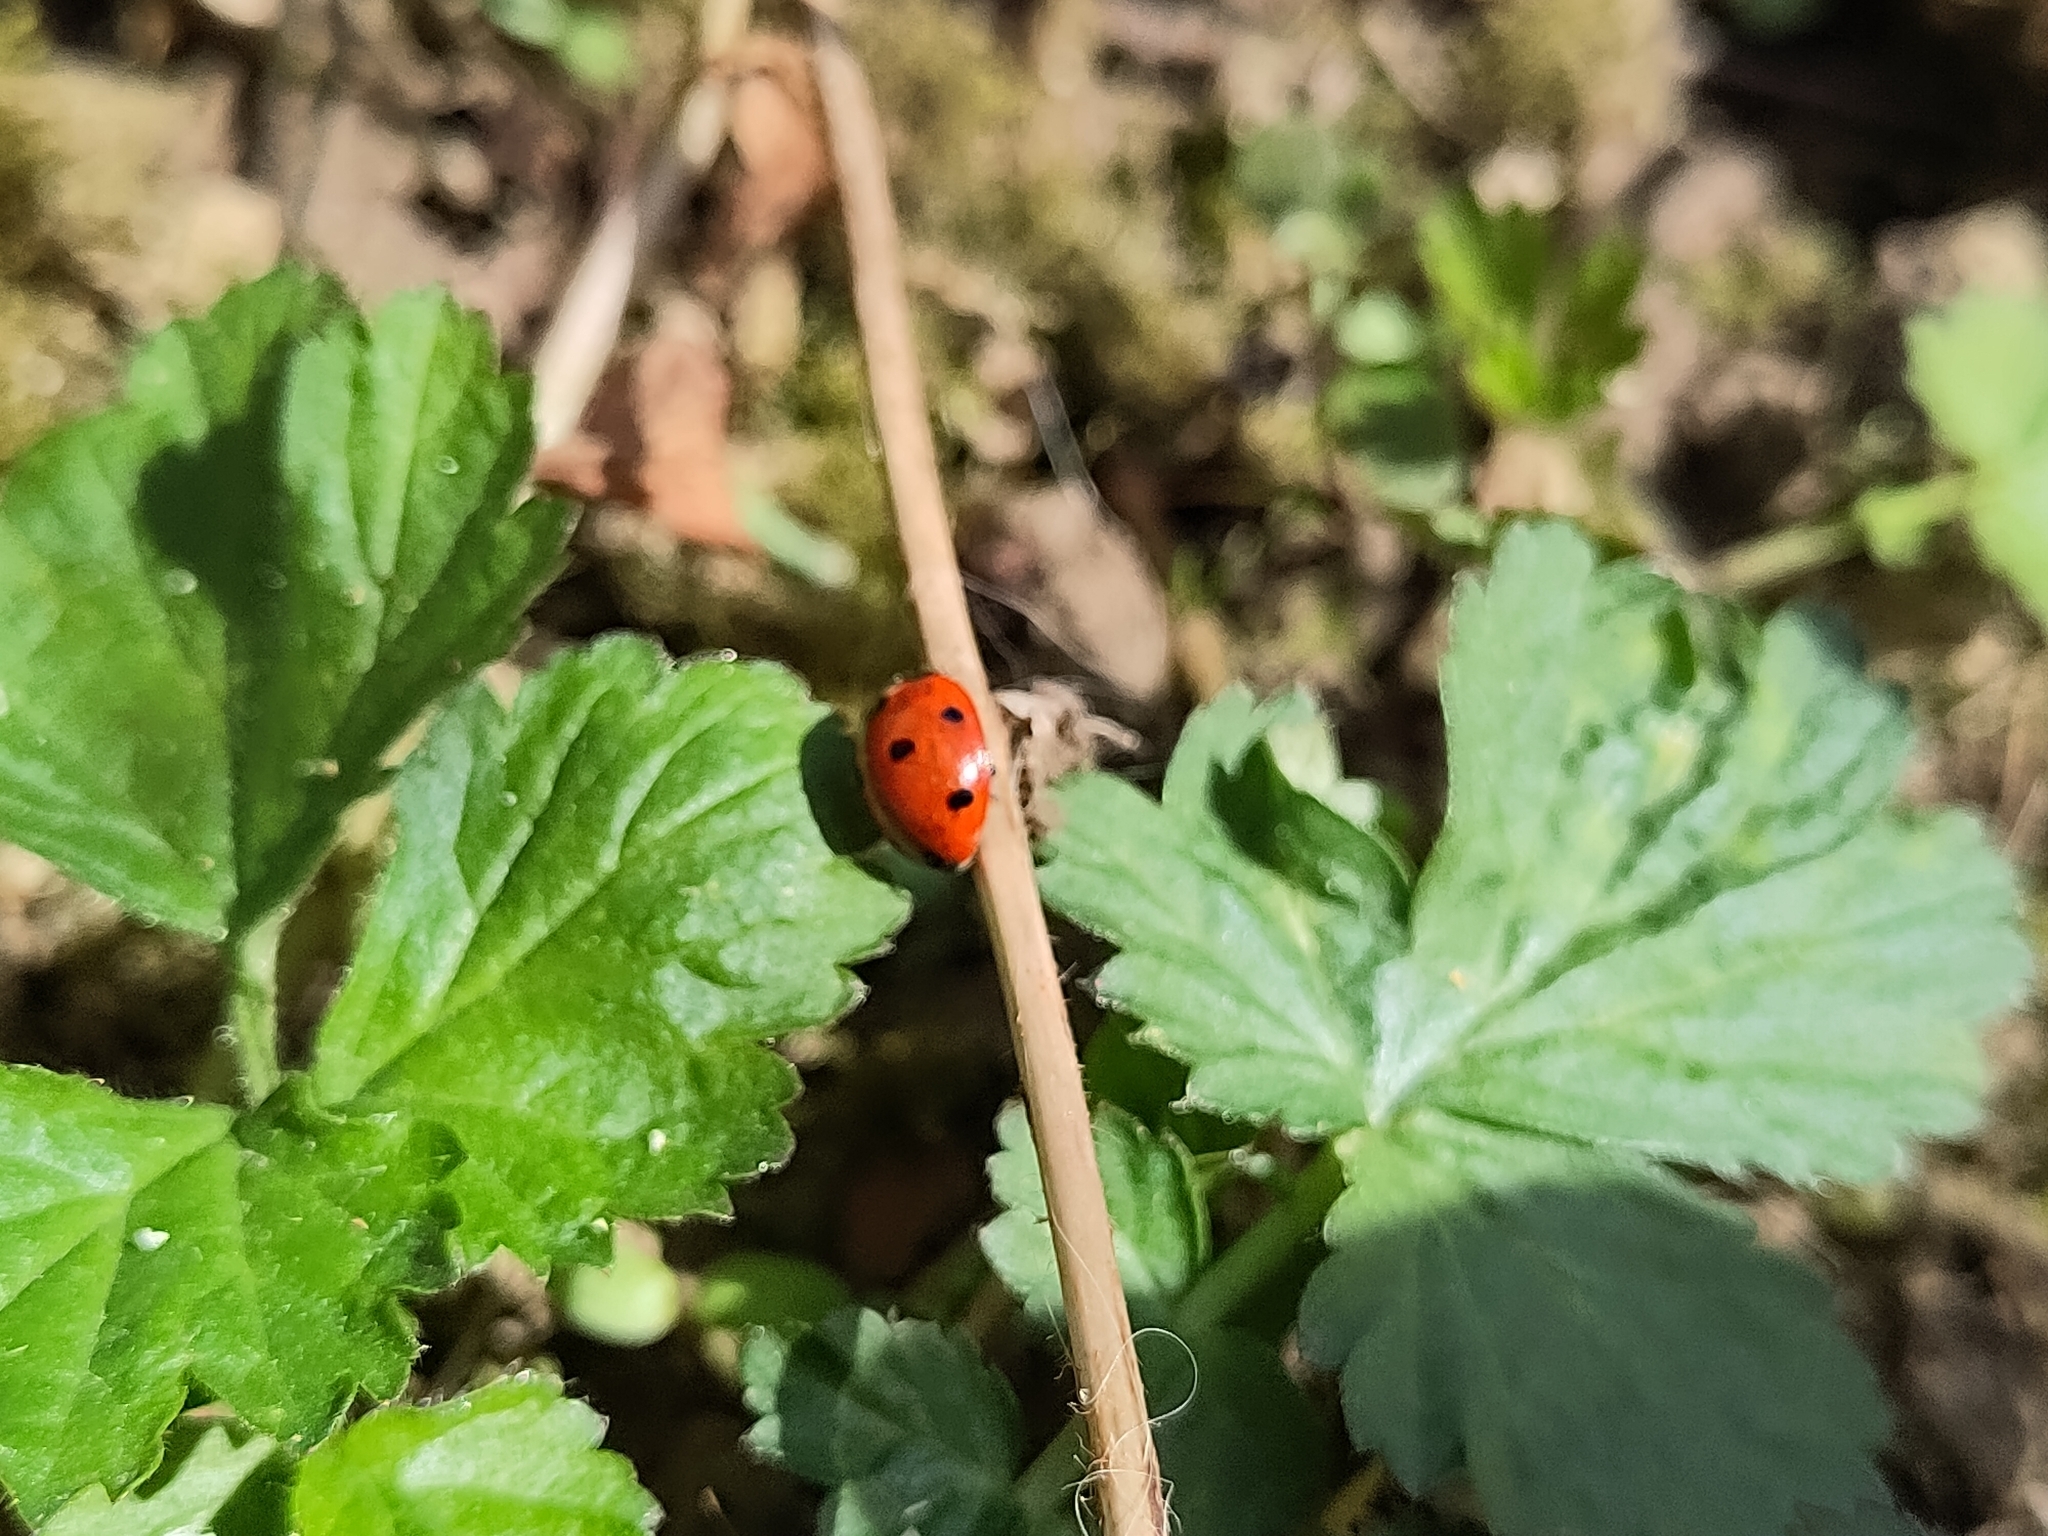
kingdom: Animalia
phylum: Arthropoda
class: Insecta
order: Coleoptera
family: Coccinellidae
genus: Coccinella
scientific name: Coccinella septempunctata
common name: Sevenspotted lady beetle
